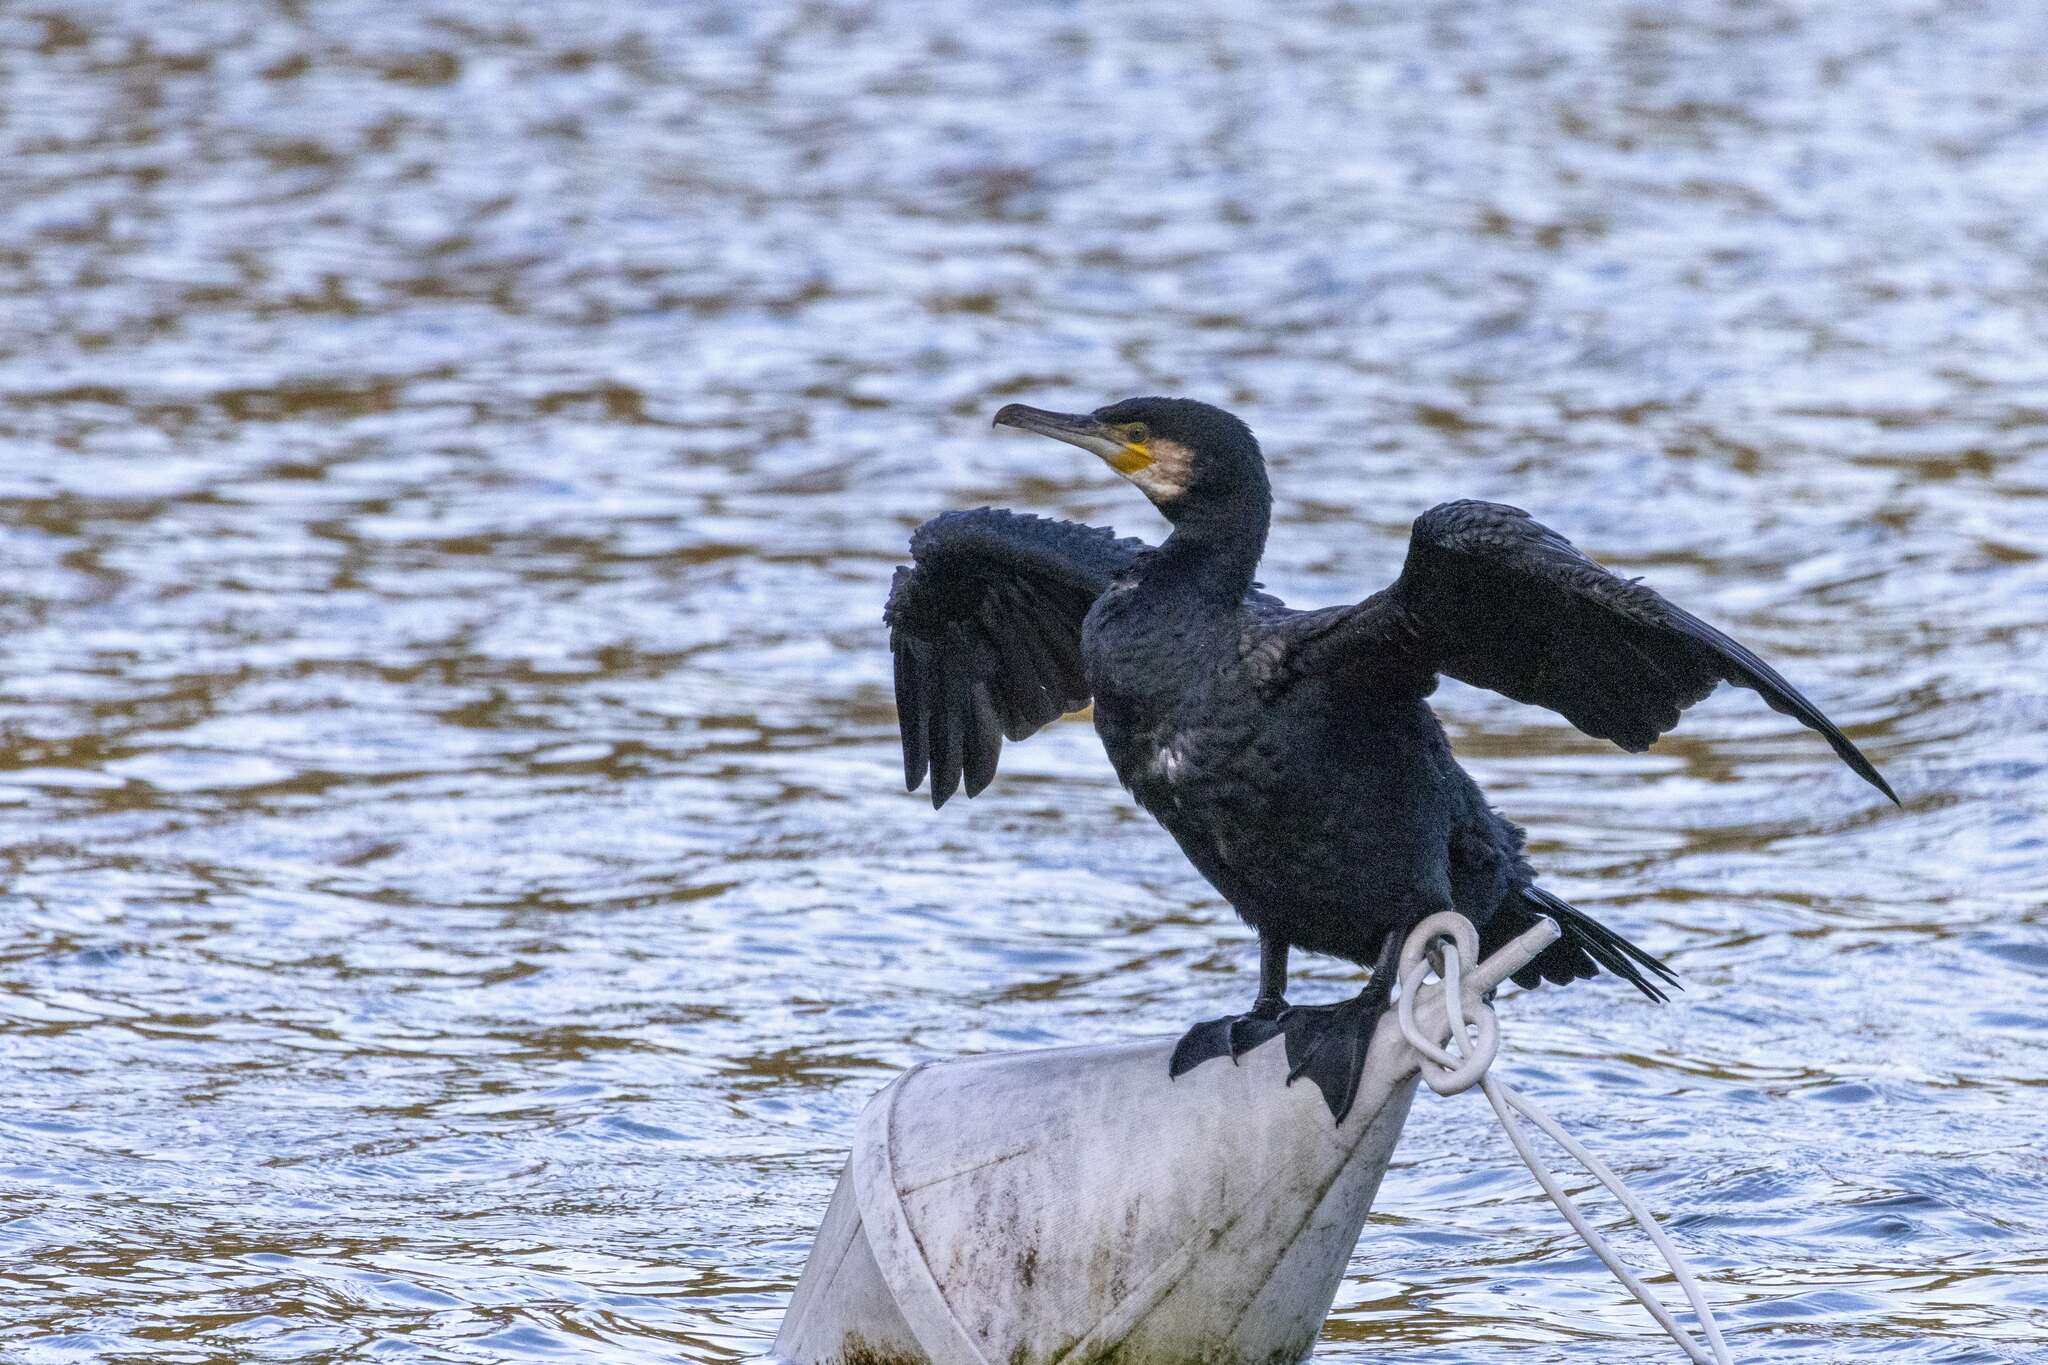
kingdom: Animalia
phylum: Chordata
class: Aves
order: Suliformes
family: Phalacrocoracidae
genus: Phalacrocorax
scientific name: Phalacrocorax carbo
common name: Great cormorant
